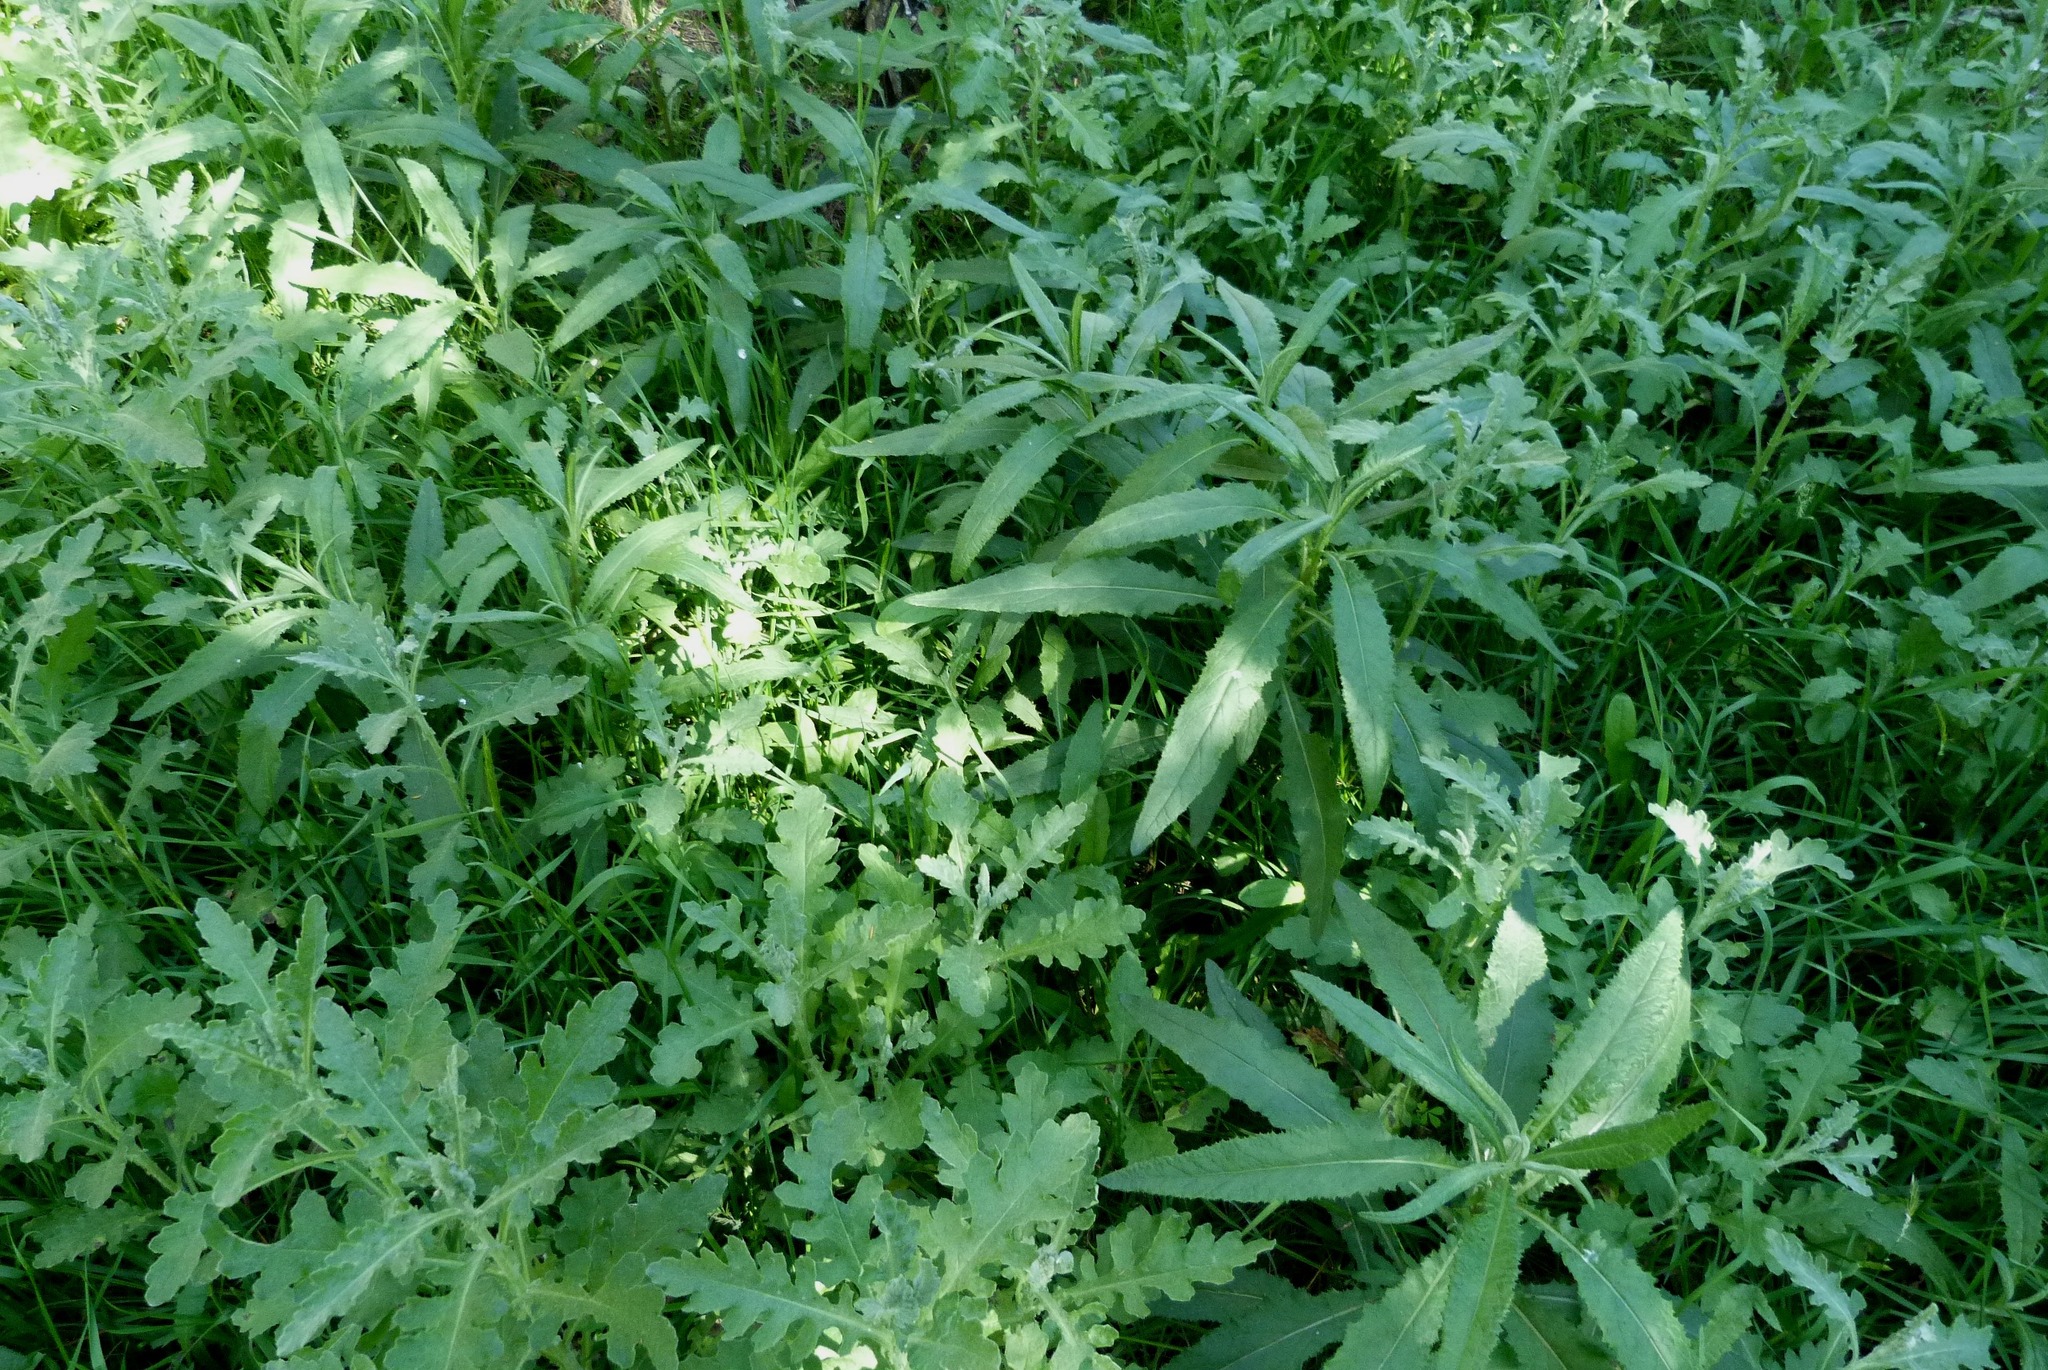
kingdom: Plantae
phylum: Tracheophyta
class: Magnoliopsida
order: Asterales
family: Asteraceae
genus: Senecio
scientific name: Senecio minimus
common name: Toothed fireweed
